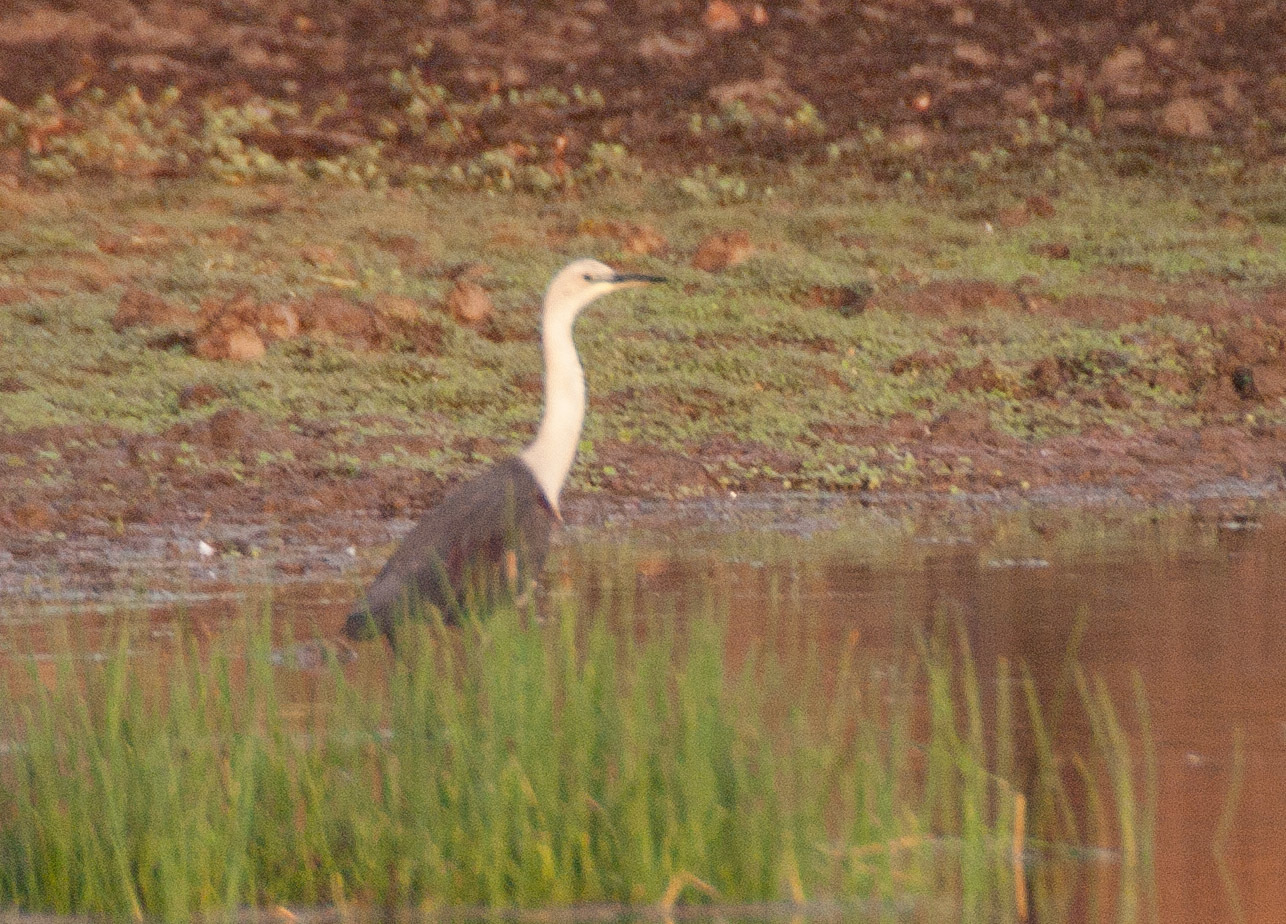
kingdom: Animalia
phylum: Chordata
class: Aves
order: Pelecaniformes
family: Ardeidae
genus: Ardea
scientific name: Ardea pacifica
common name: White-necked heron
